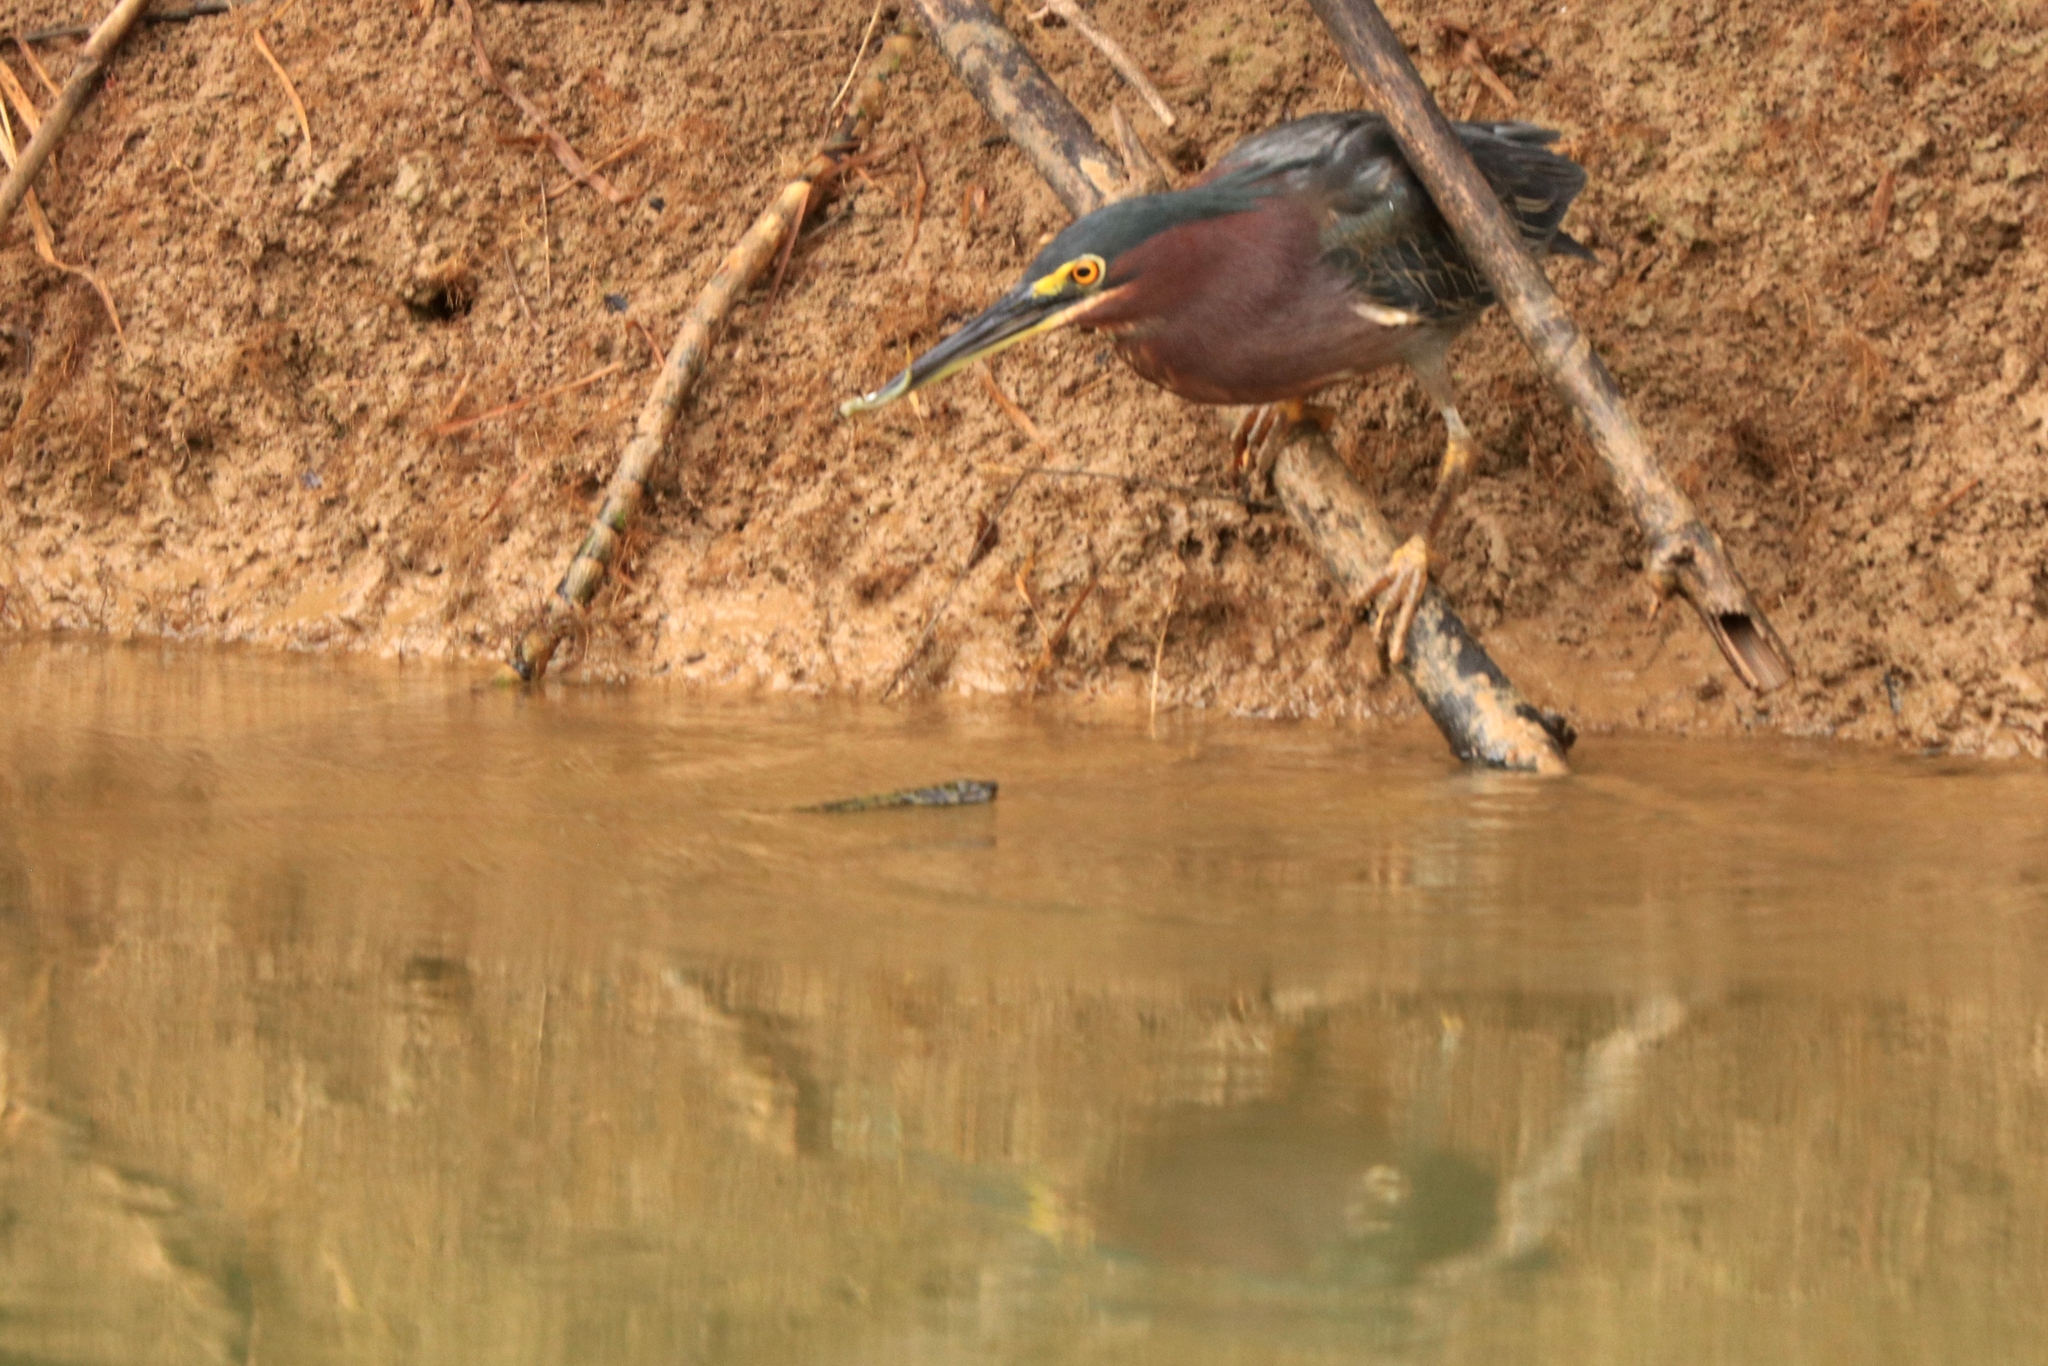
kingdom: Animalia
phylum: Chordata
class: Aves
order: Pelecaniformes
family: Ardeidae
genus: Butorides
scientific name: Butorides virescens
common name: Green heron
